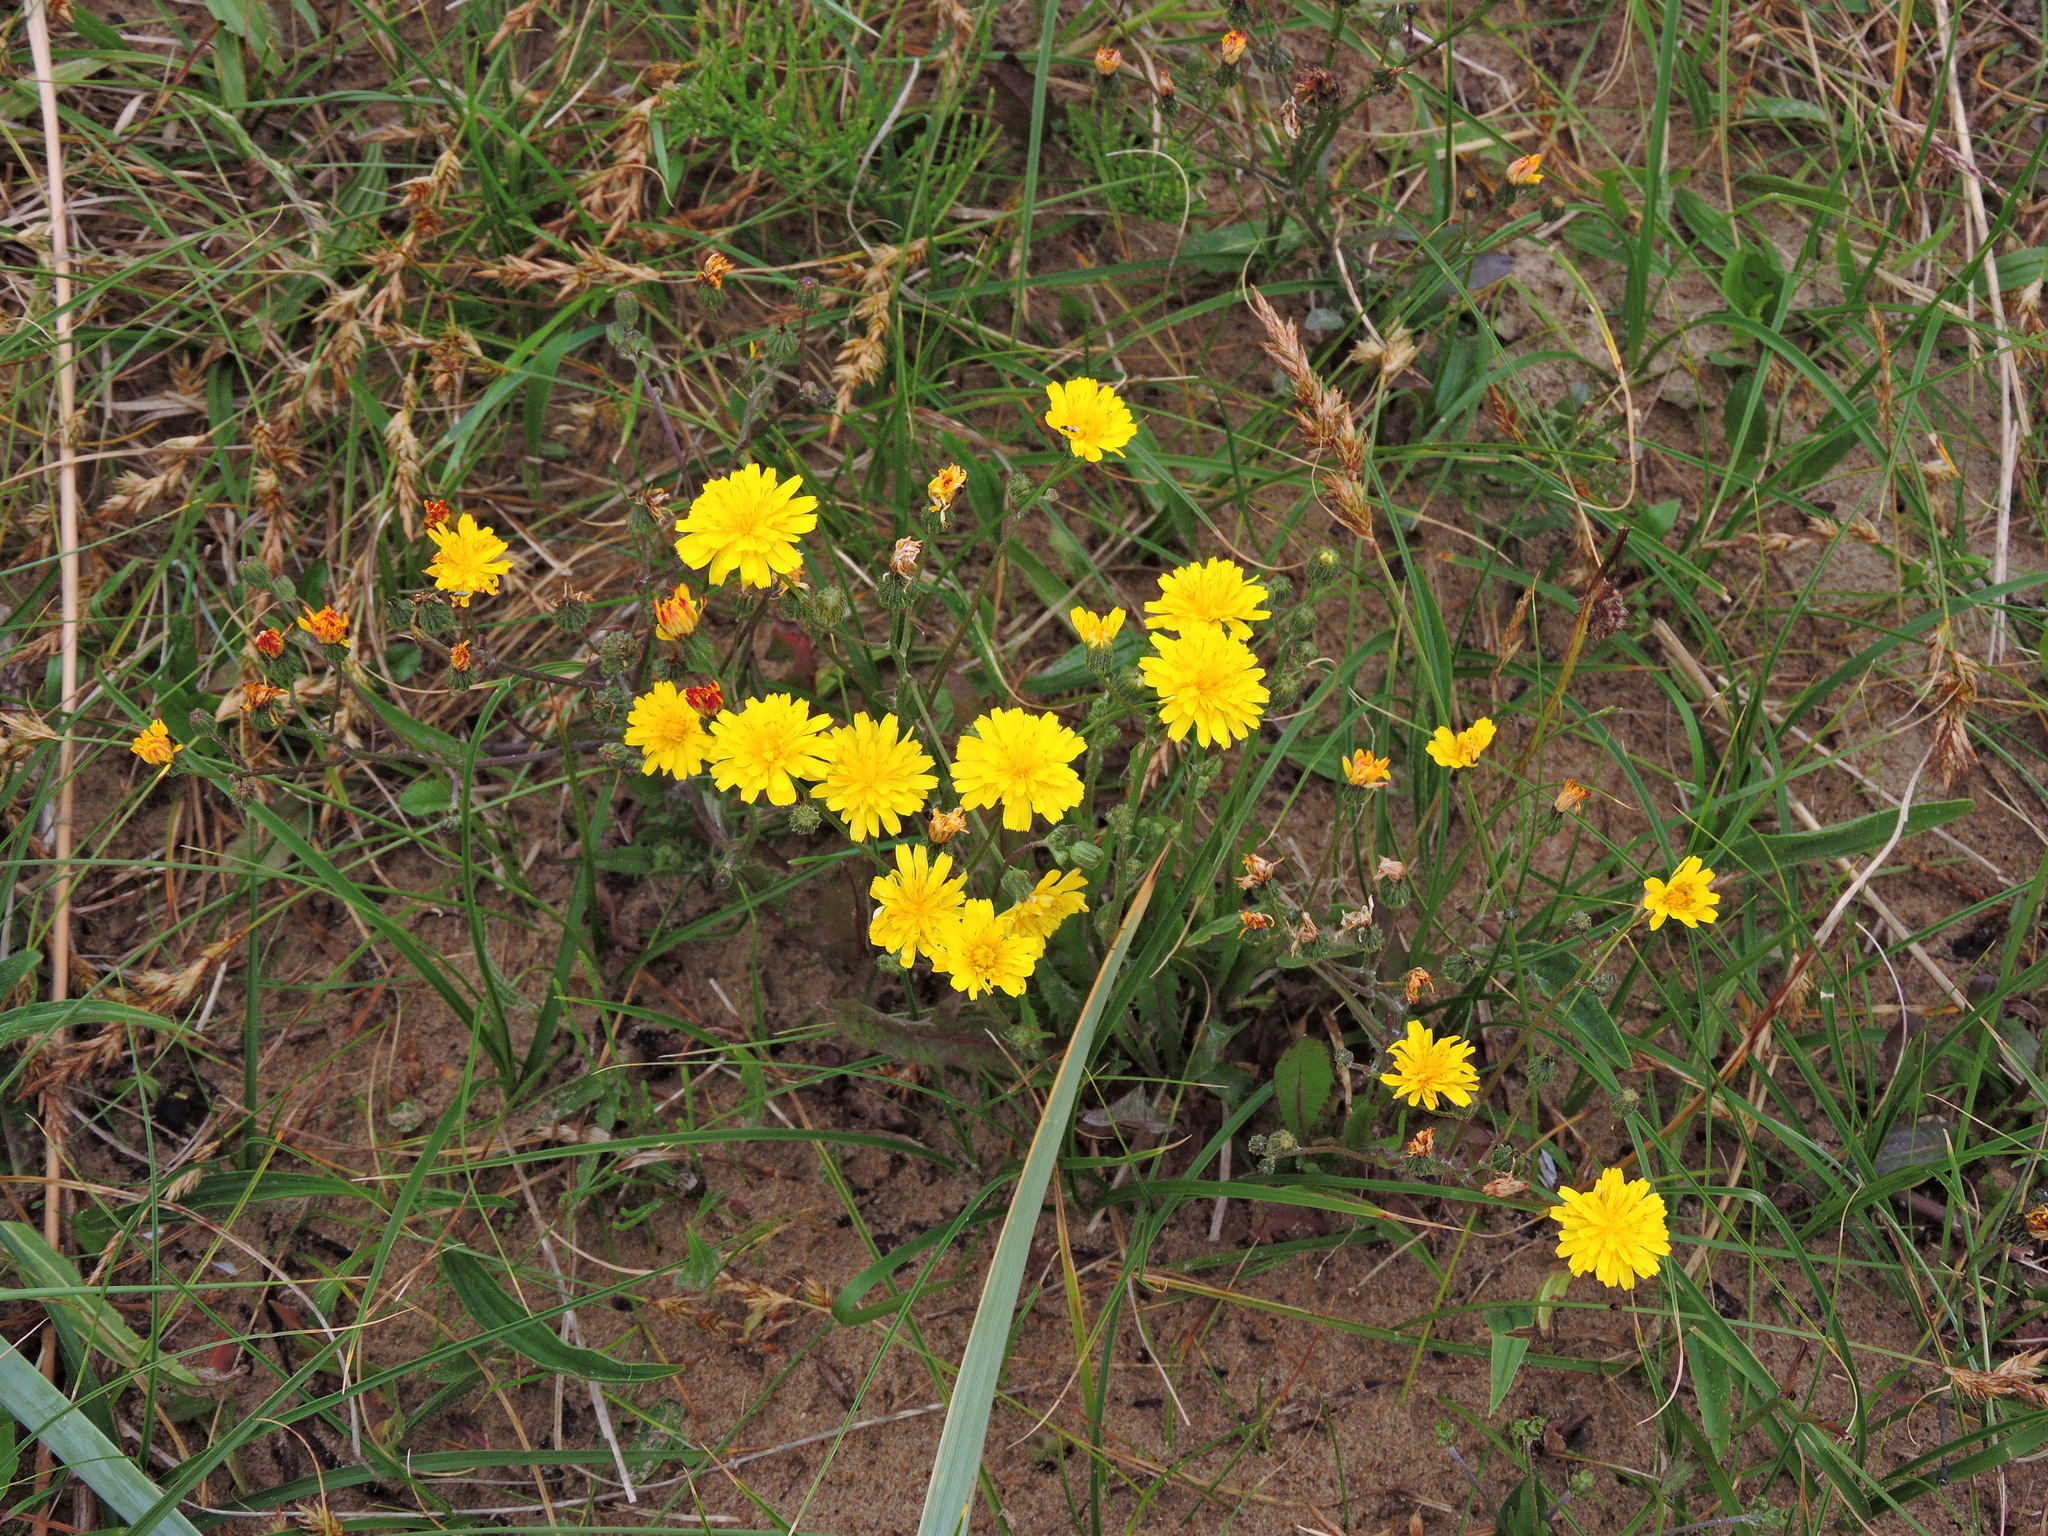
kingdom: Plantae
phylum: Tracheophyta
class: Magnoliopsida
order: Asterales
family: Asteraceae
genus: Crepis
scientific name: Crepis capillaris
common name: Smooth hawksbeard
